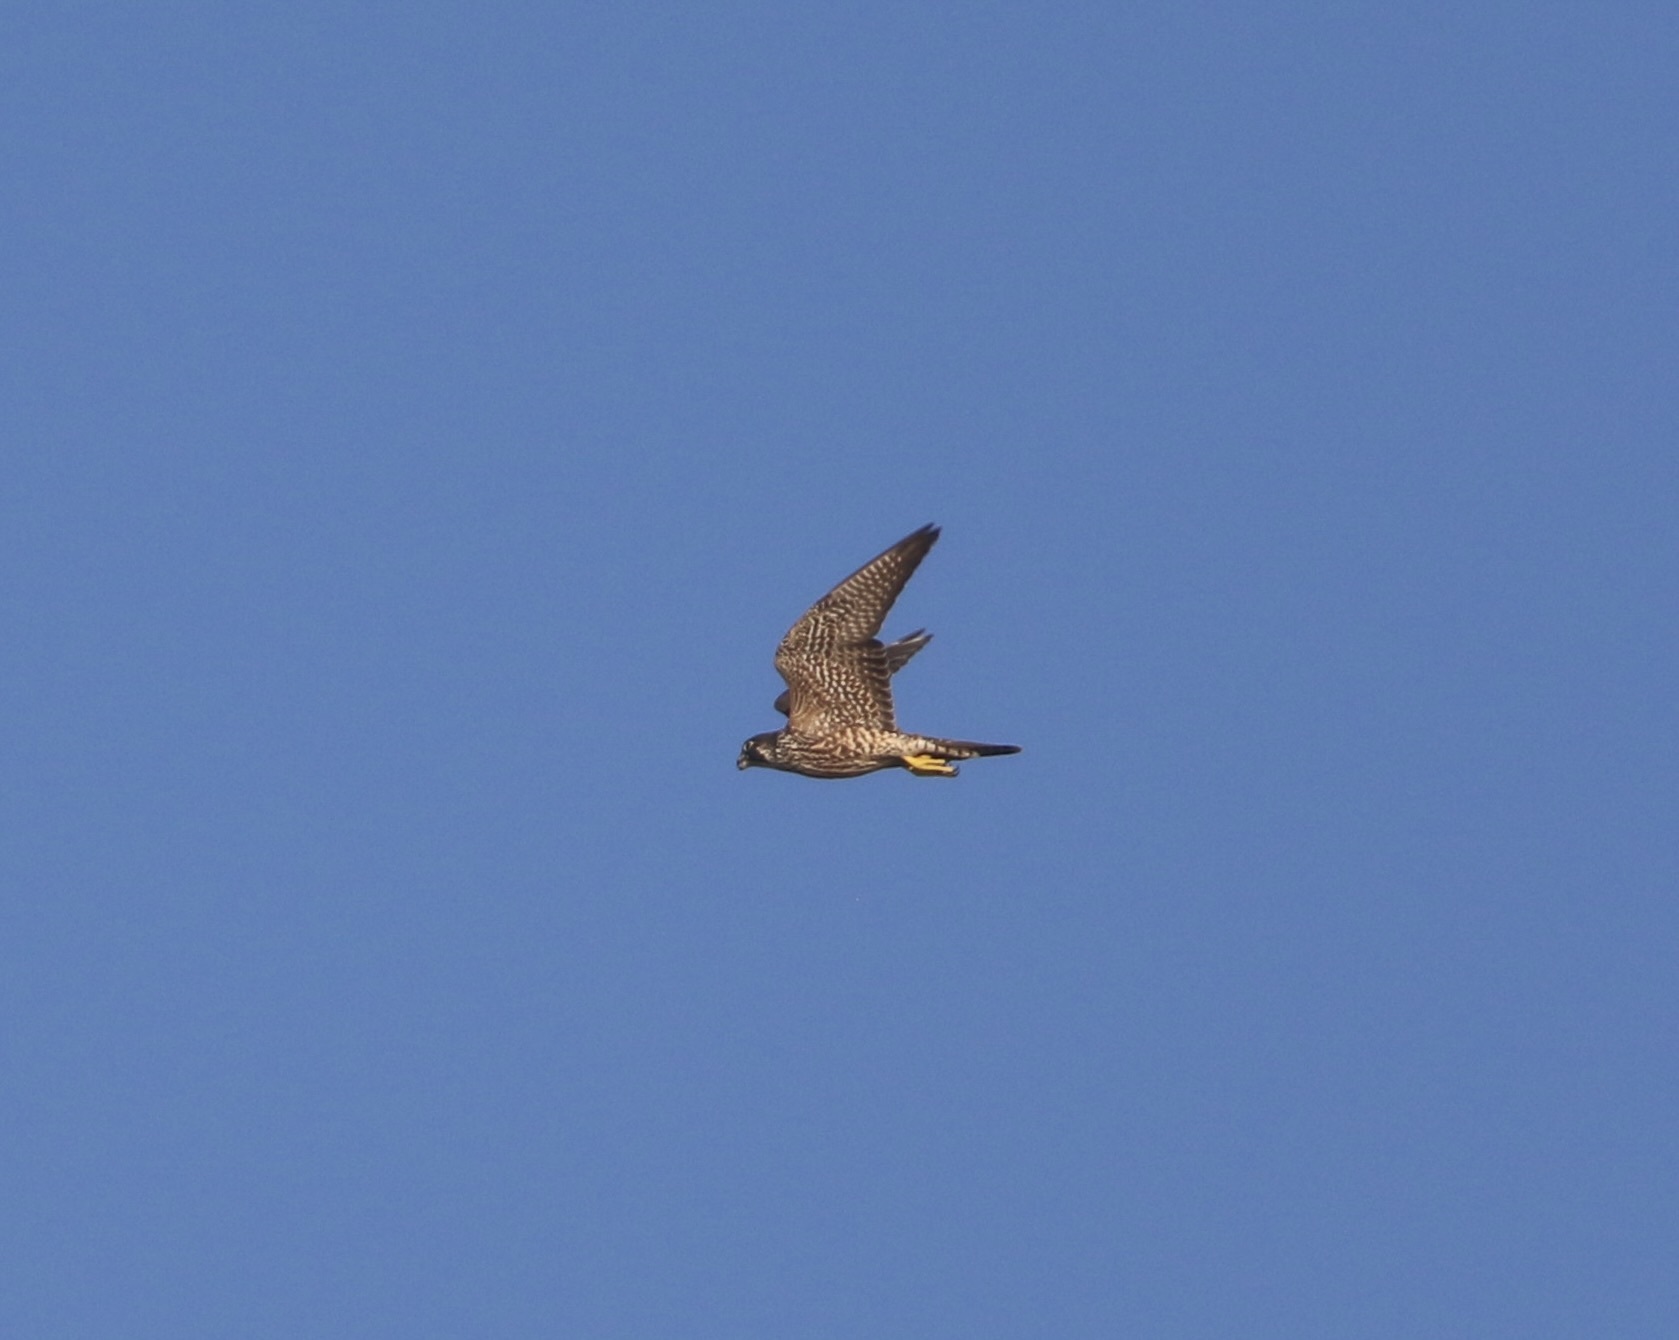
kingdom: Animalia
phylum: Chordata
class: Aves
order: Falconiformes
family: Falconidae
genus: Falco
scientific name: Falco peregrinus
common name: Peregrine falcon
